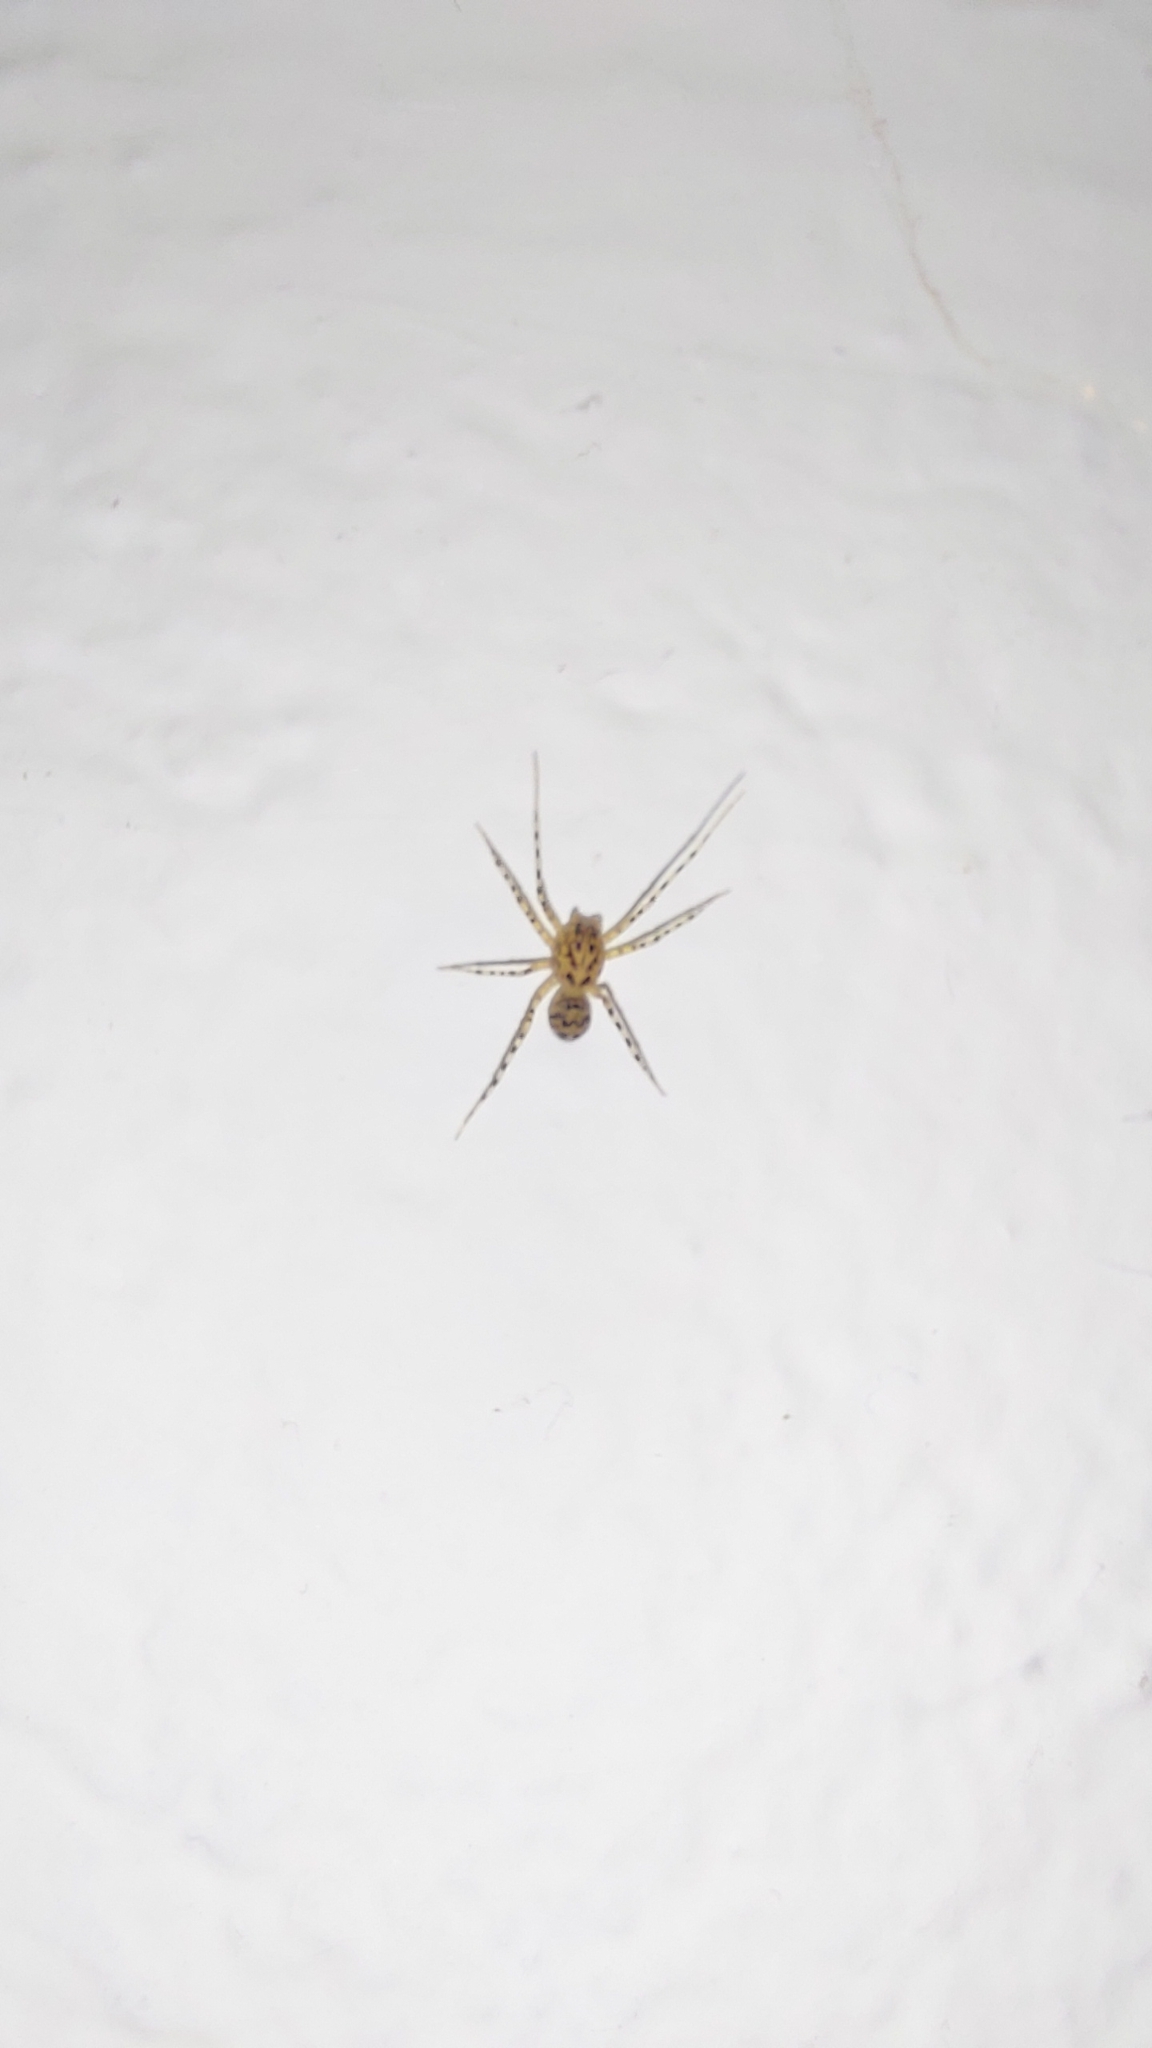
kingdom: Animalia
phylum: Arthropoda
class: Arachnida
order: Araneae
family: Scytodidae
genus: Scytodes
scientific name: Scytodes thoracica
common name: Spitting spider
